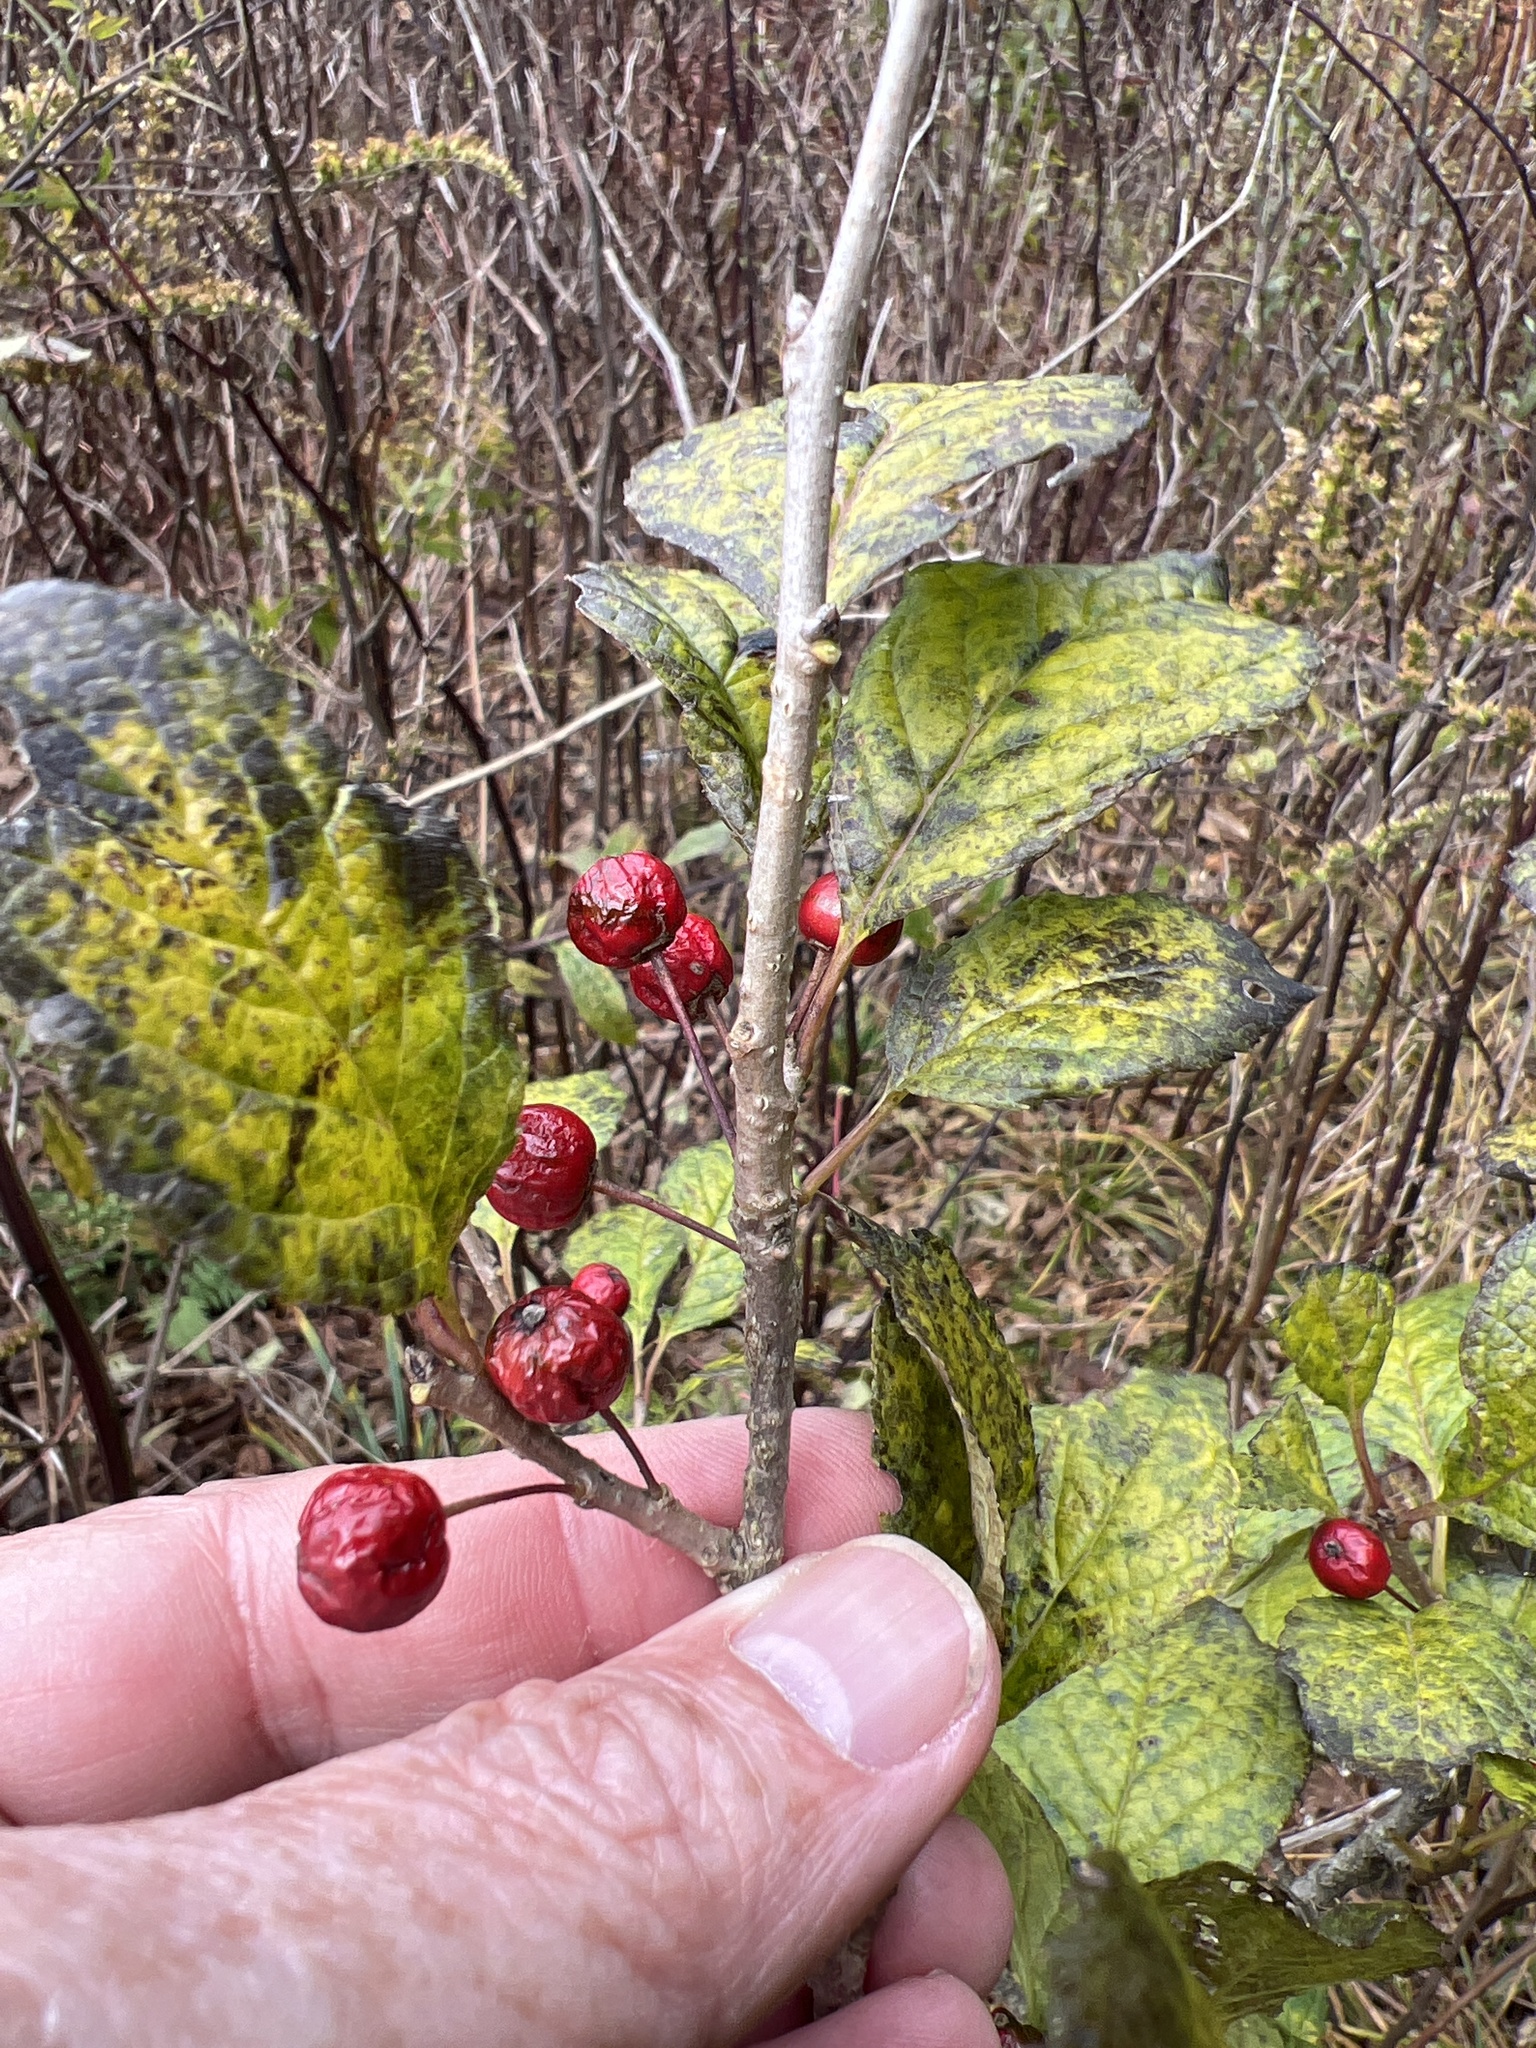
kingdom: Plantae
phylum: Tracheophyta
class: Magnoliopsida
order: Aquifoliales
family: Aquifoliaceae
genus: Ilex
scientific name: Ilex collina
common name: Long stalk holly
